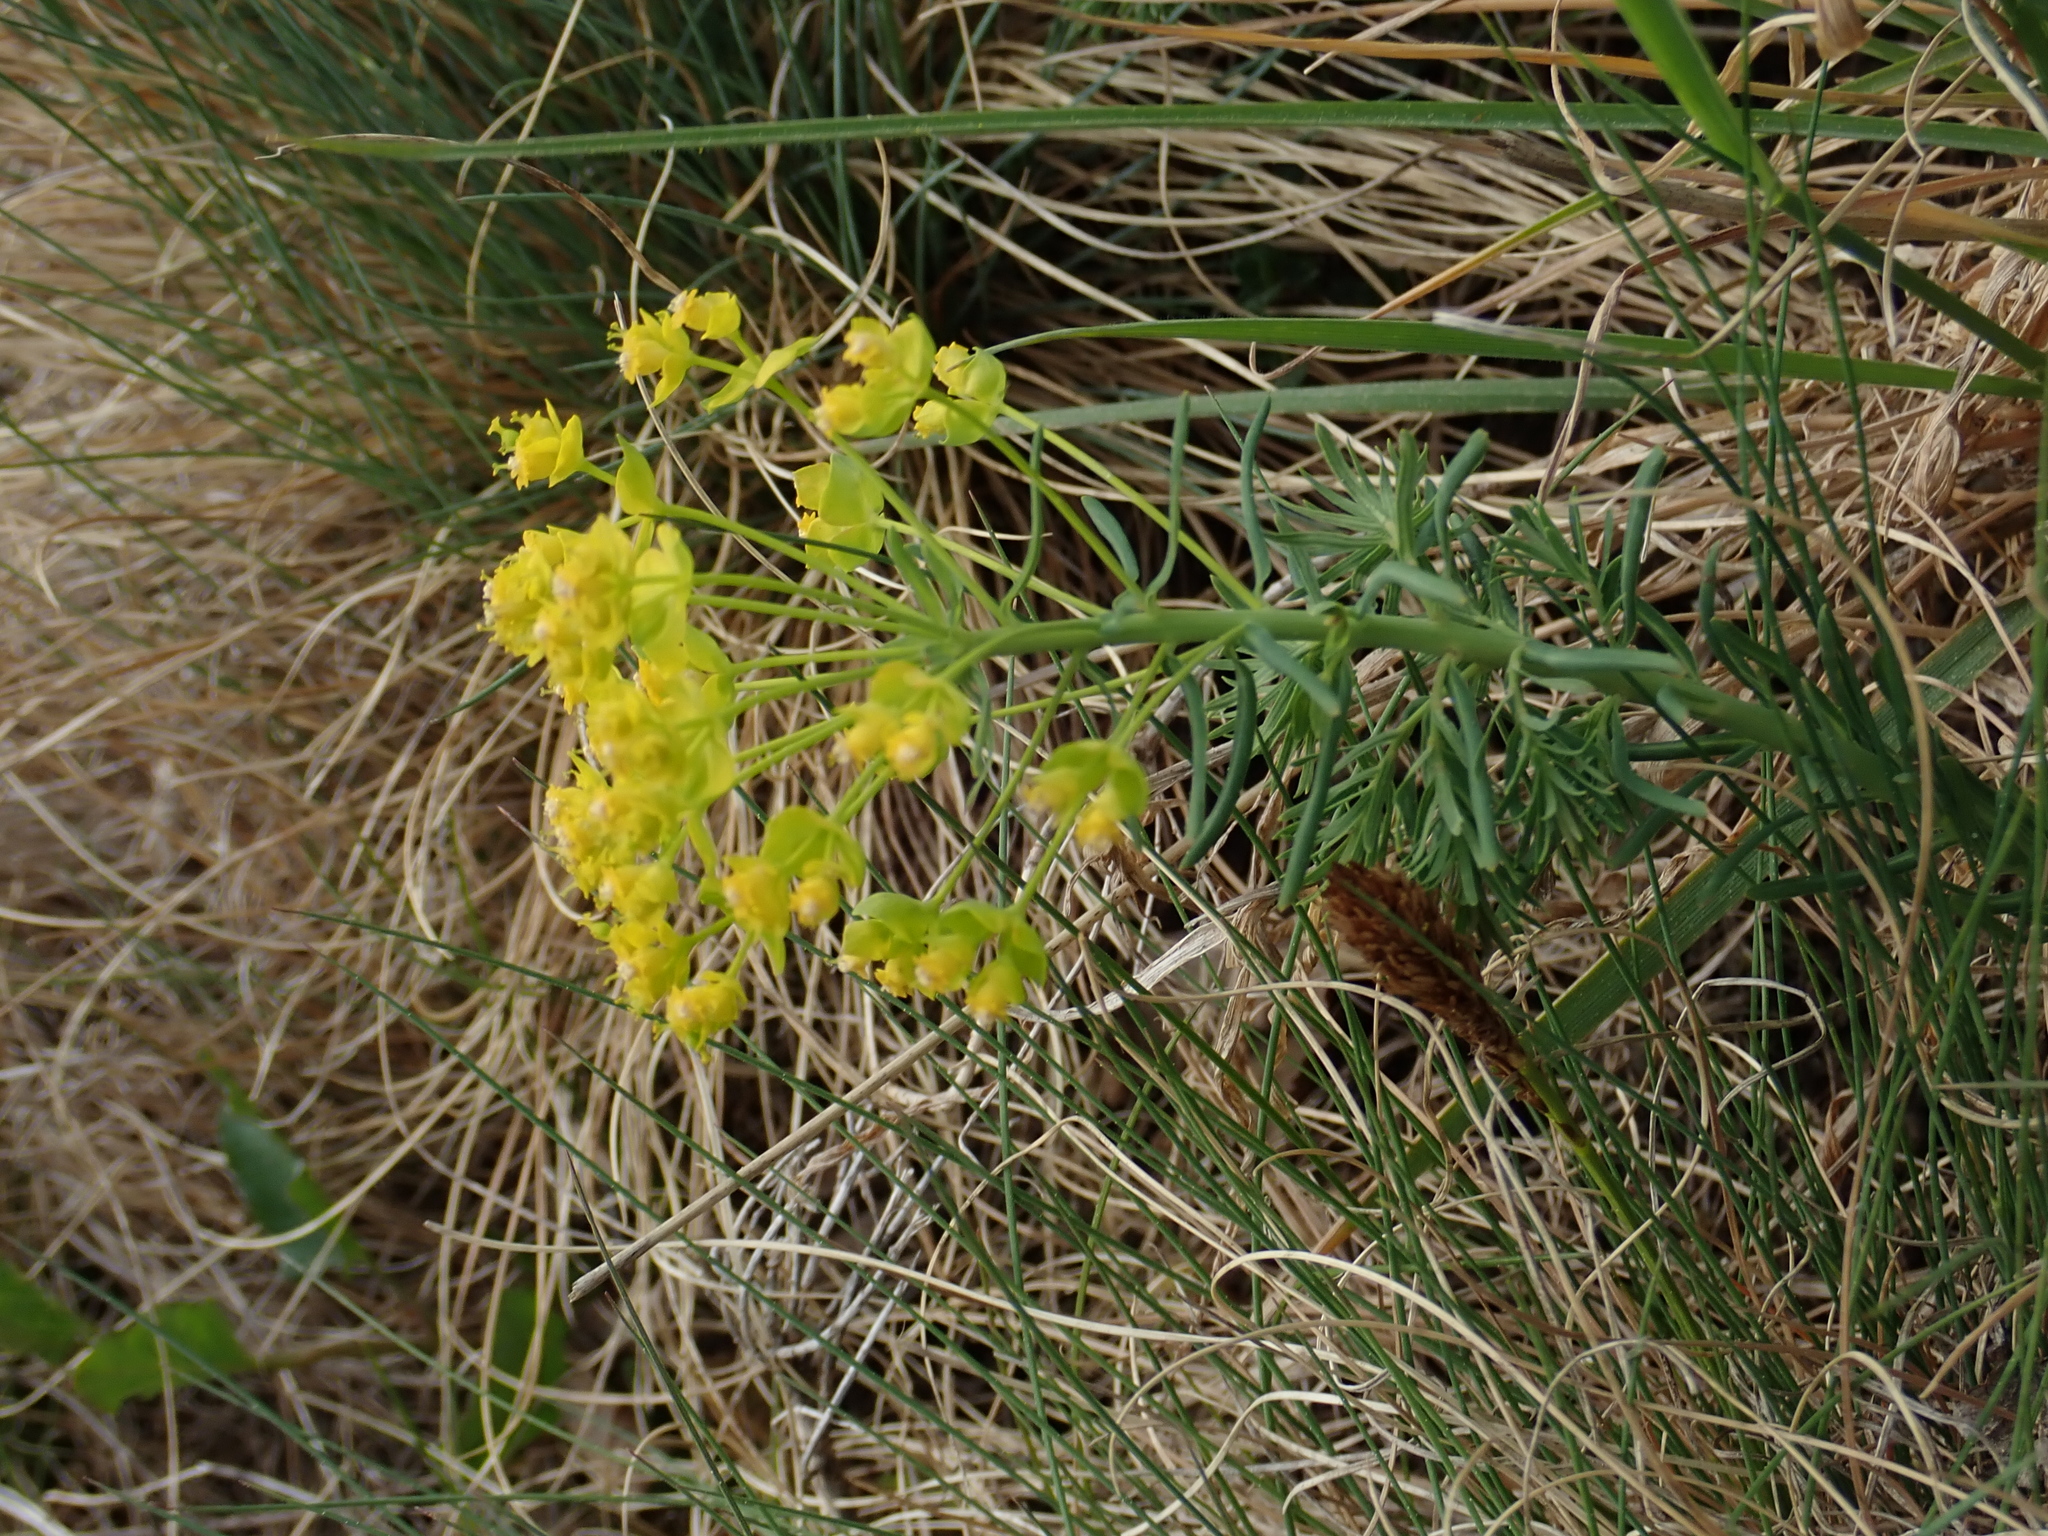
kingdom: Plantae
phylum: Tracheophyta
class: Magnoliopsida
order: Malpighiales
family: Euphorbiaceae
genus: Euphorbia
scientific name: Euphorbia cyparissias
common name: Cypress spurge
